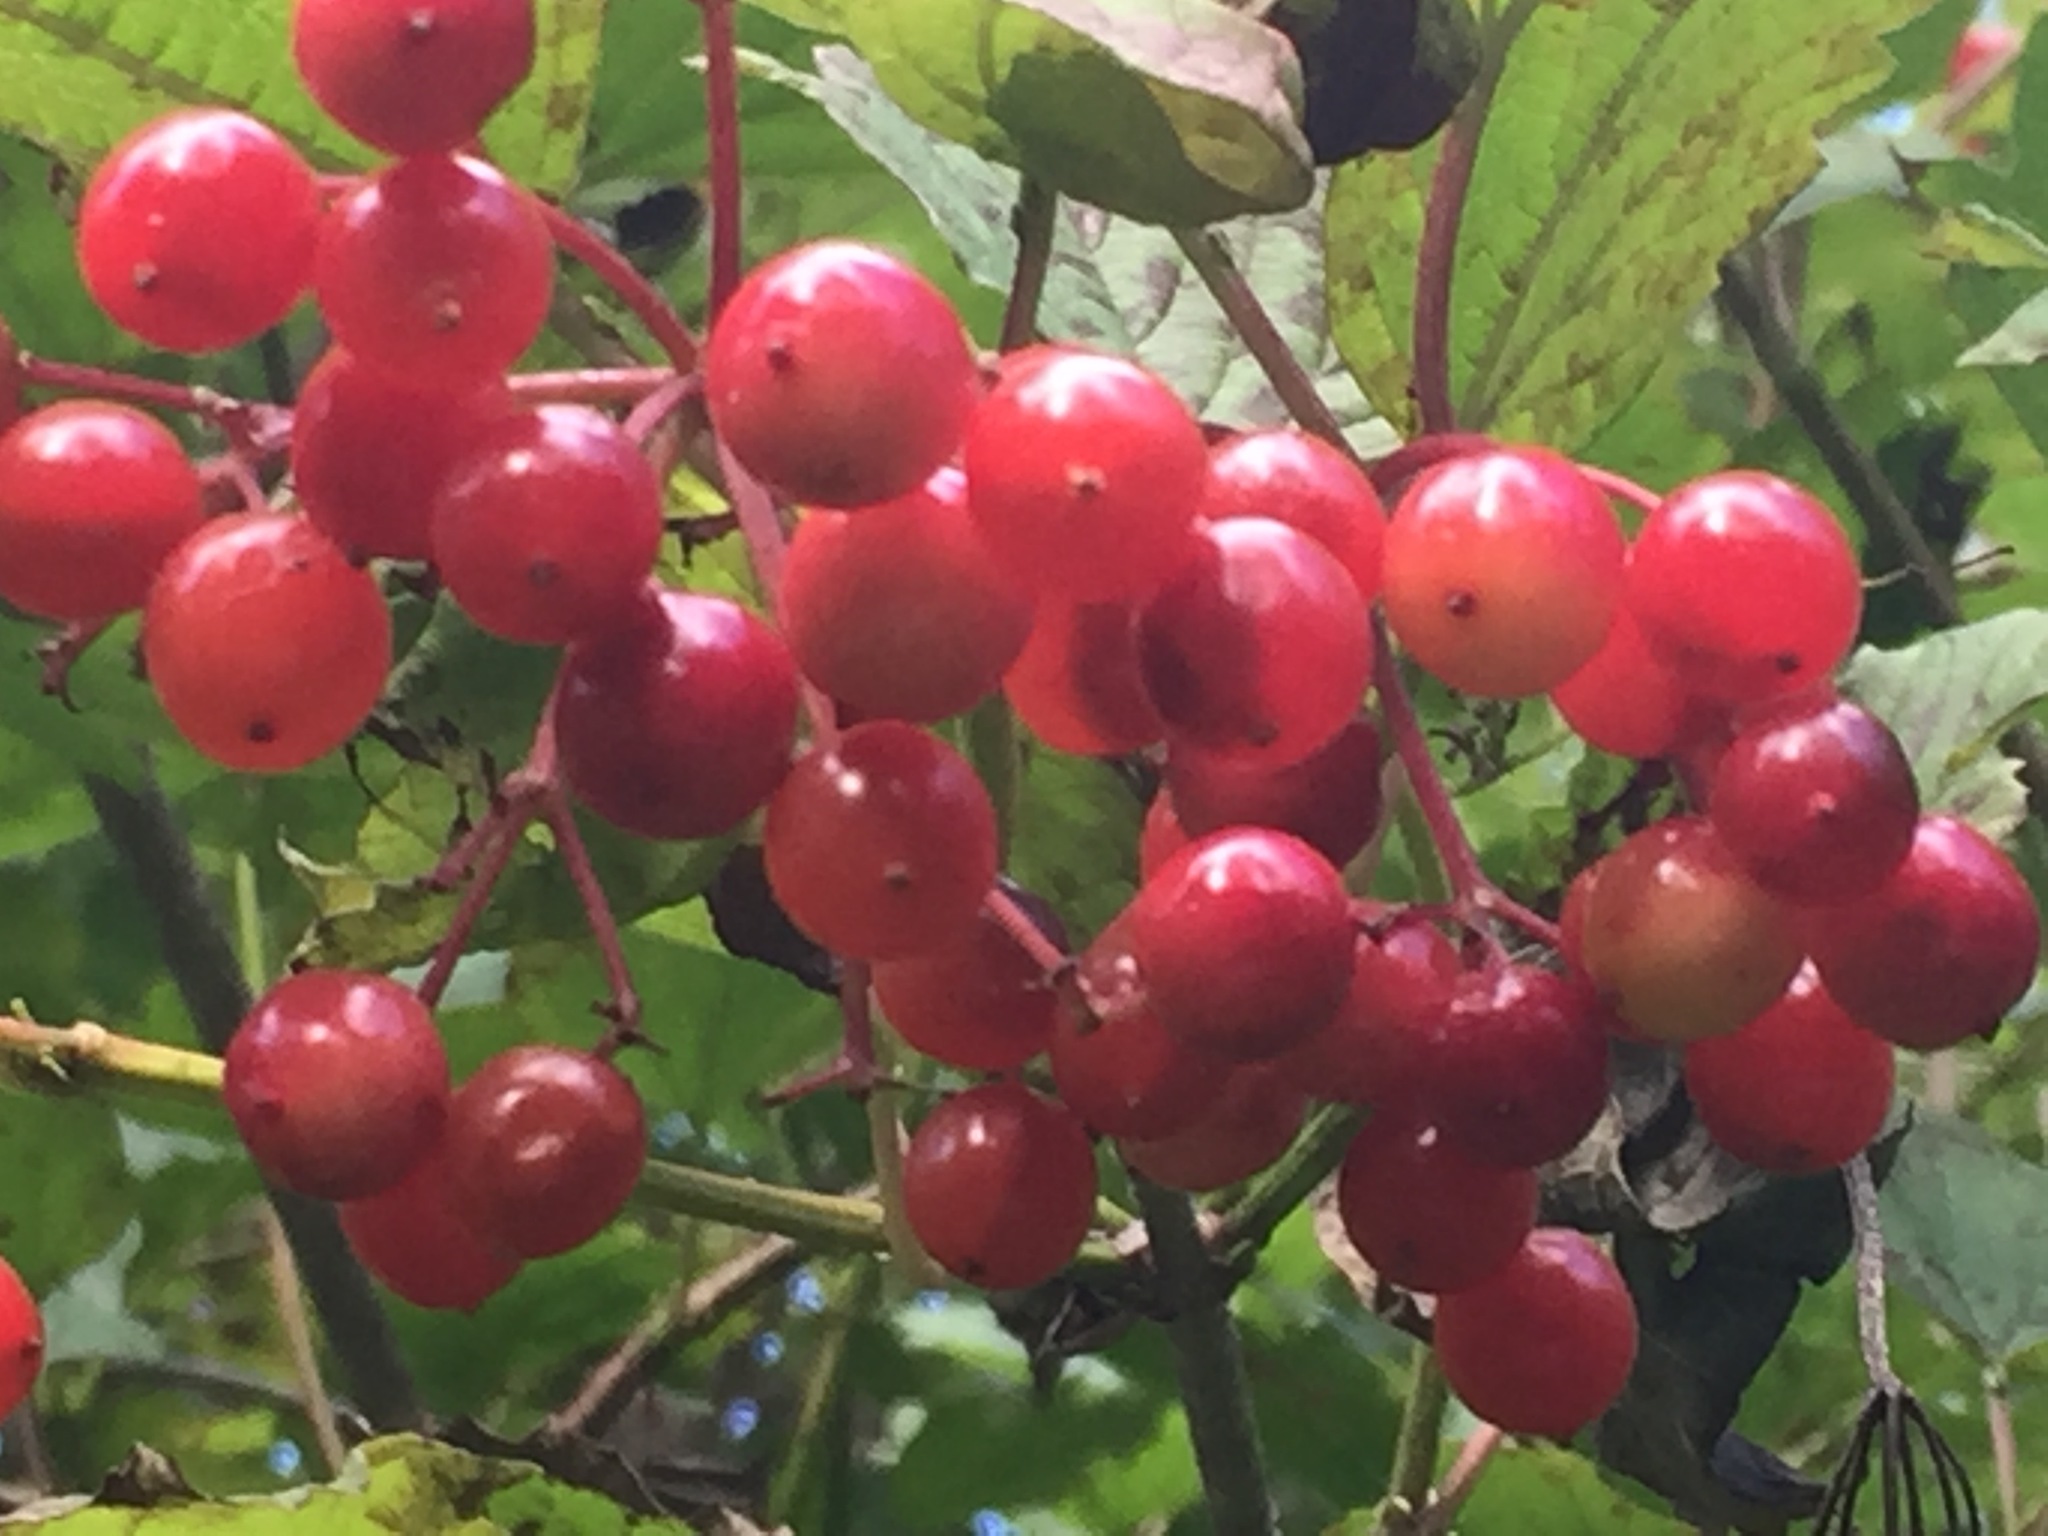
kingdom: Plantae
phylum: Tracheophyta
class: Magnoliopsida
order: Dipsacales
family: Viburnaceae
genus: Viburnum
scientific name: Viburnum opulus
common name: Guelder-rose
